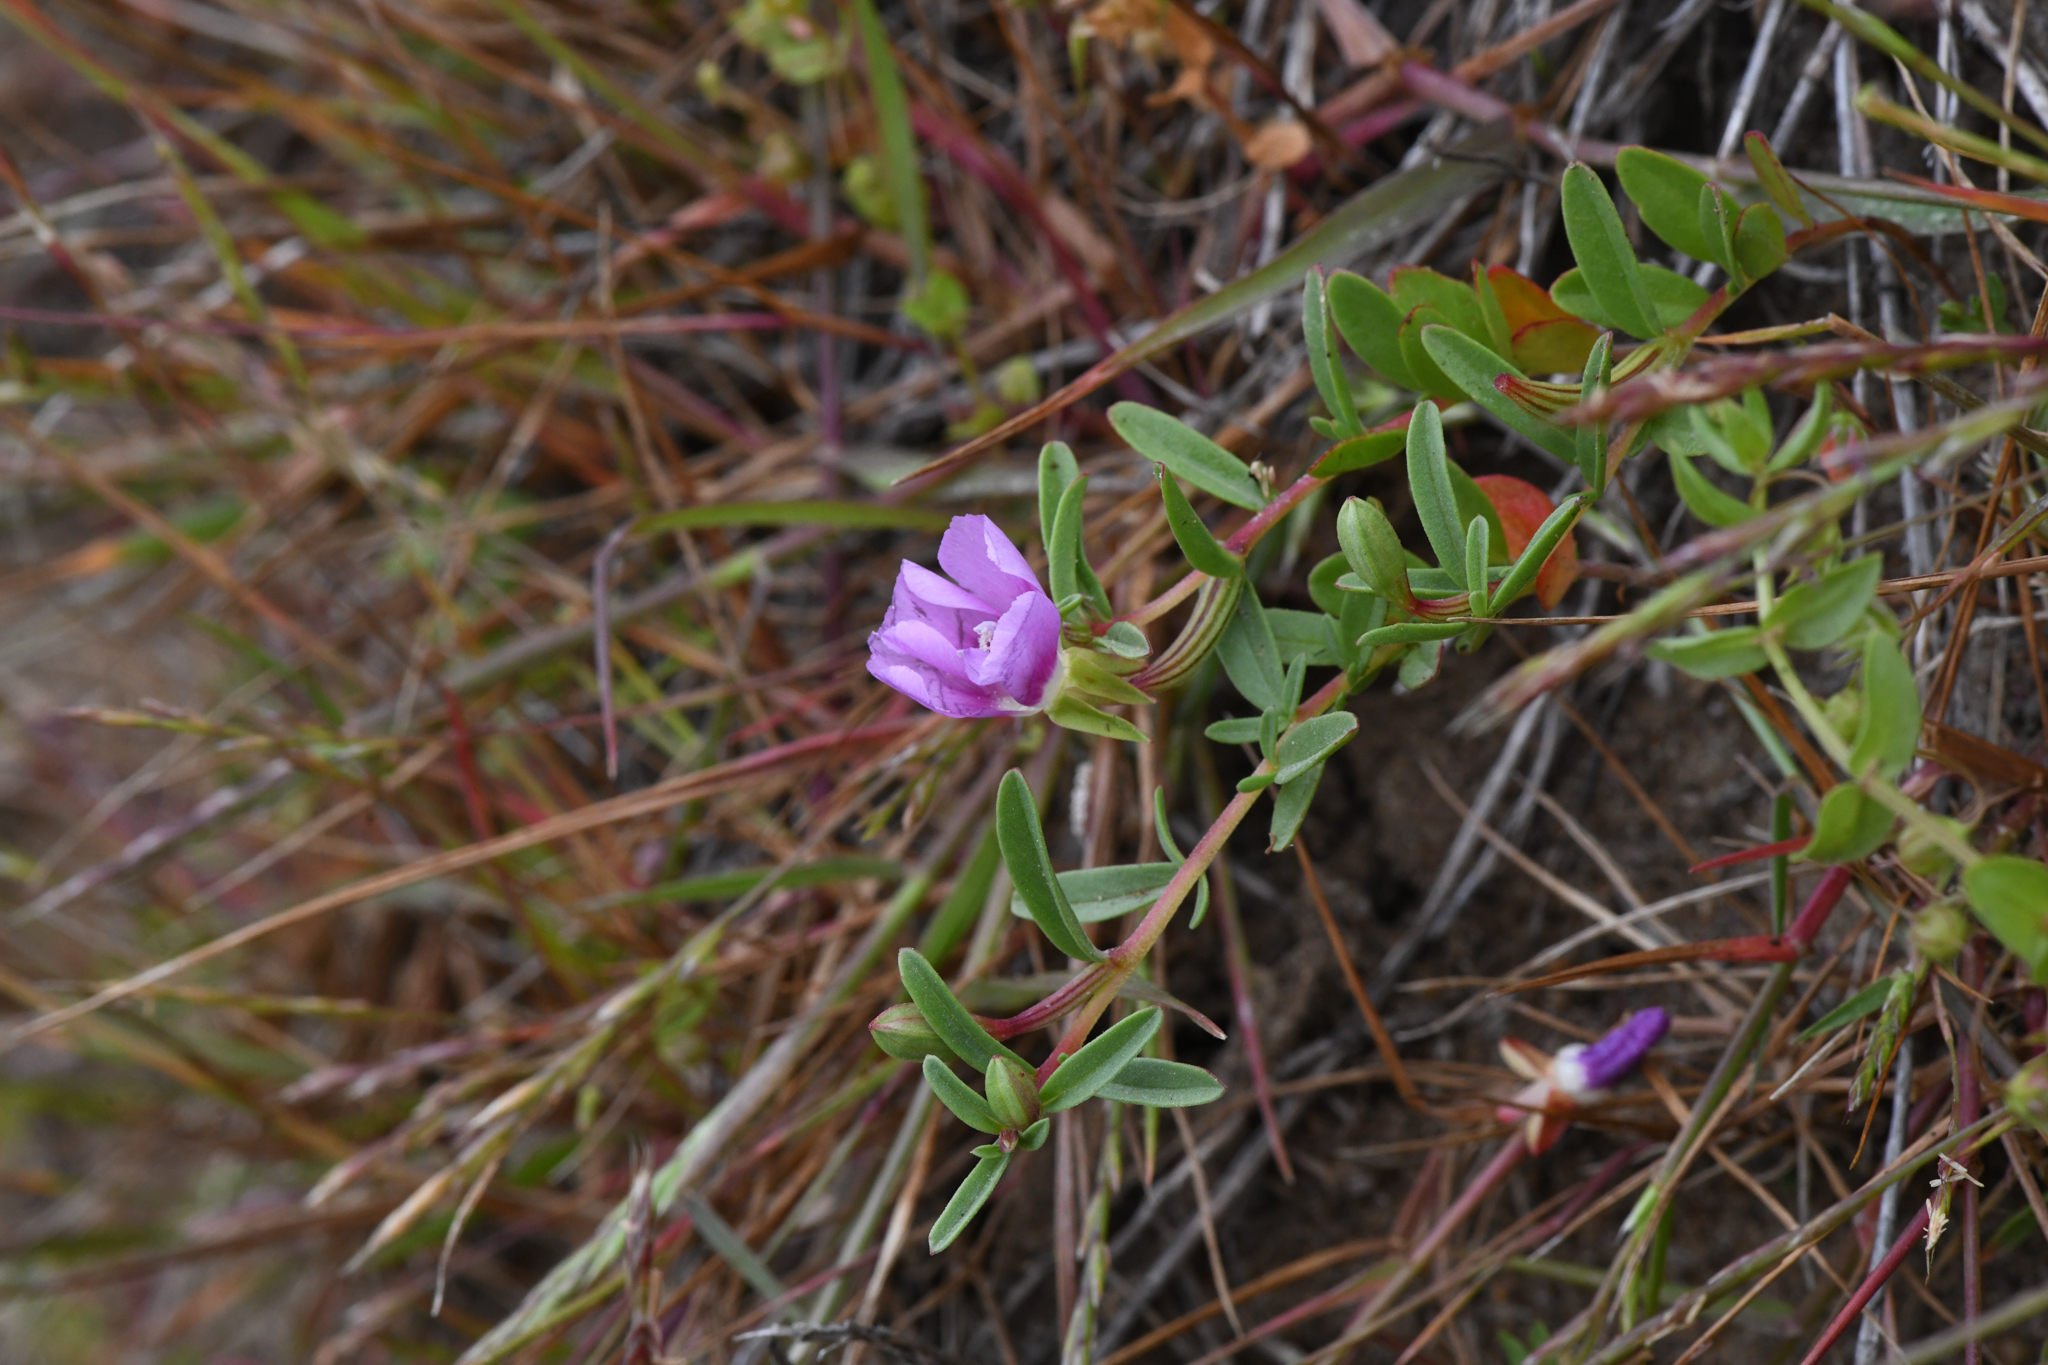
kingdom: Plantae
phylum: Tracheophyta
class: Magnoliopsida
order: Myrtales
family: Onagraceae
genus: Clarkia
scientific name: Clarkia prostrata
